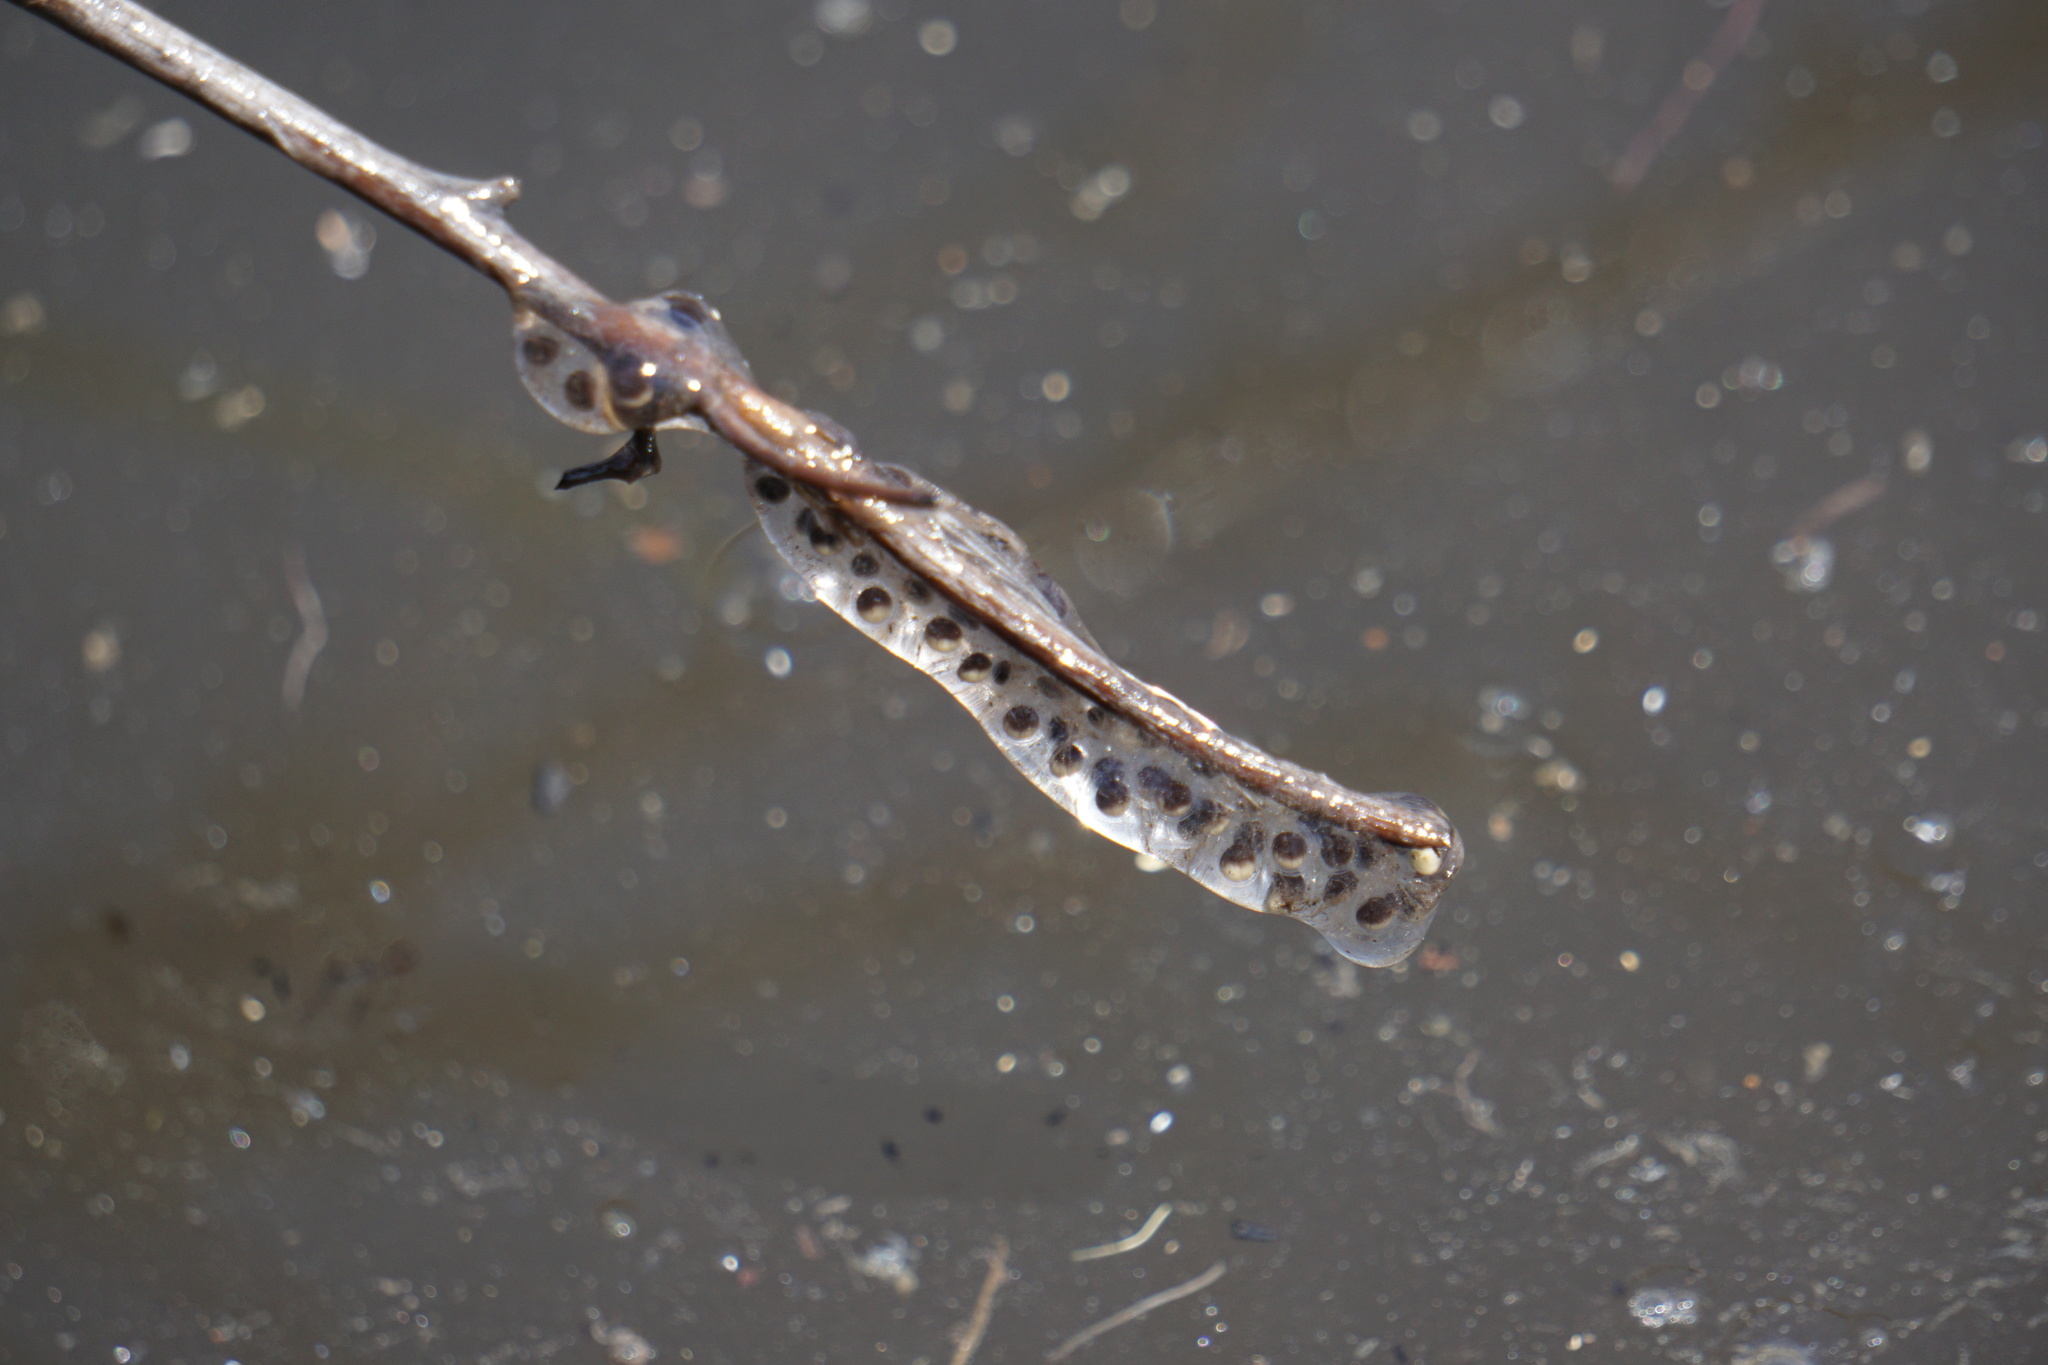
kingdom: Animalia
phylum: Chordata
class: Amphibia
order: Caudata
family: Ambystomatidae
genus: Ambystoma
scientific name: Ambystoma macrodactylum
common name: Long-toed salamander
